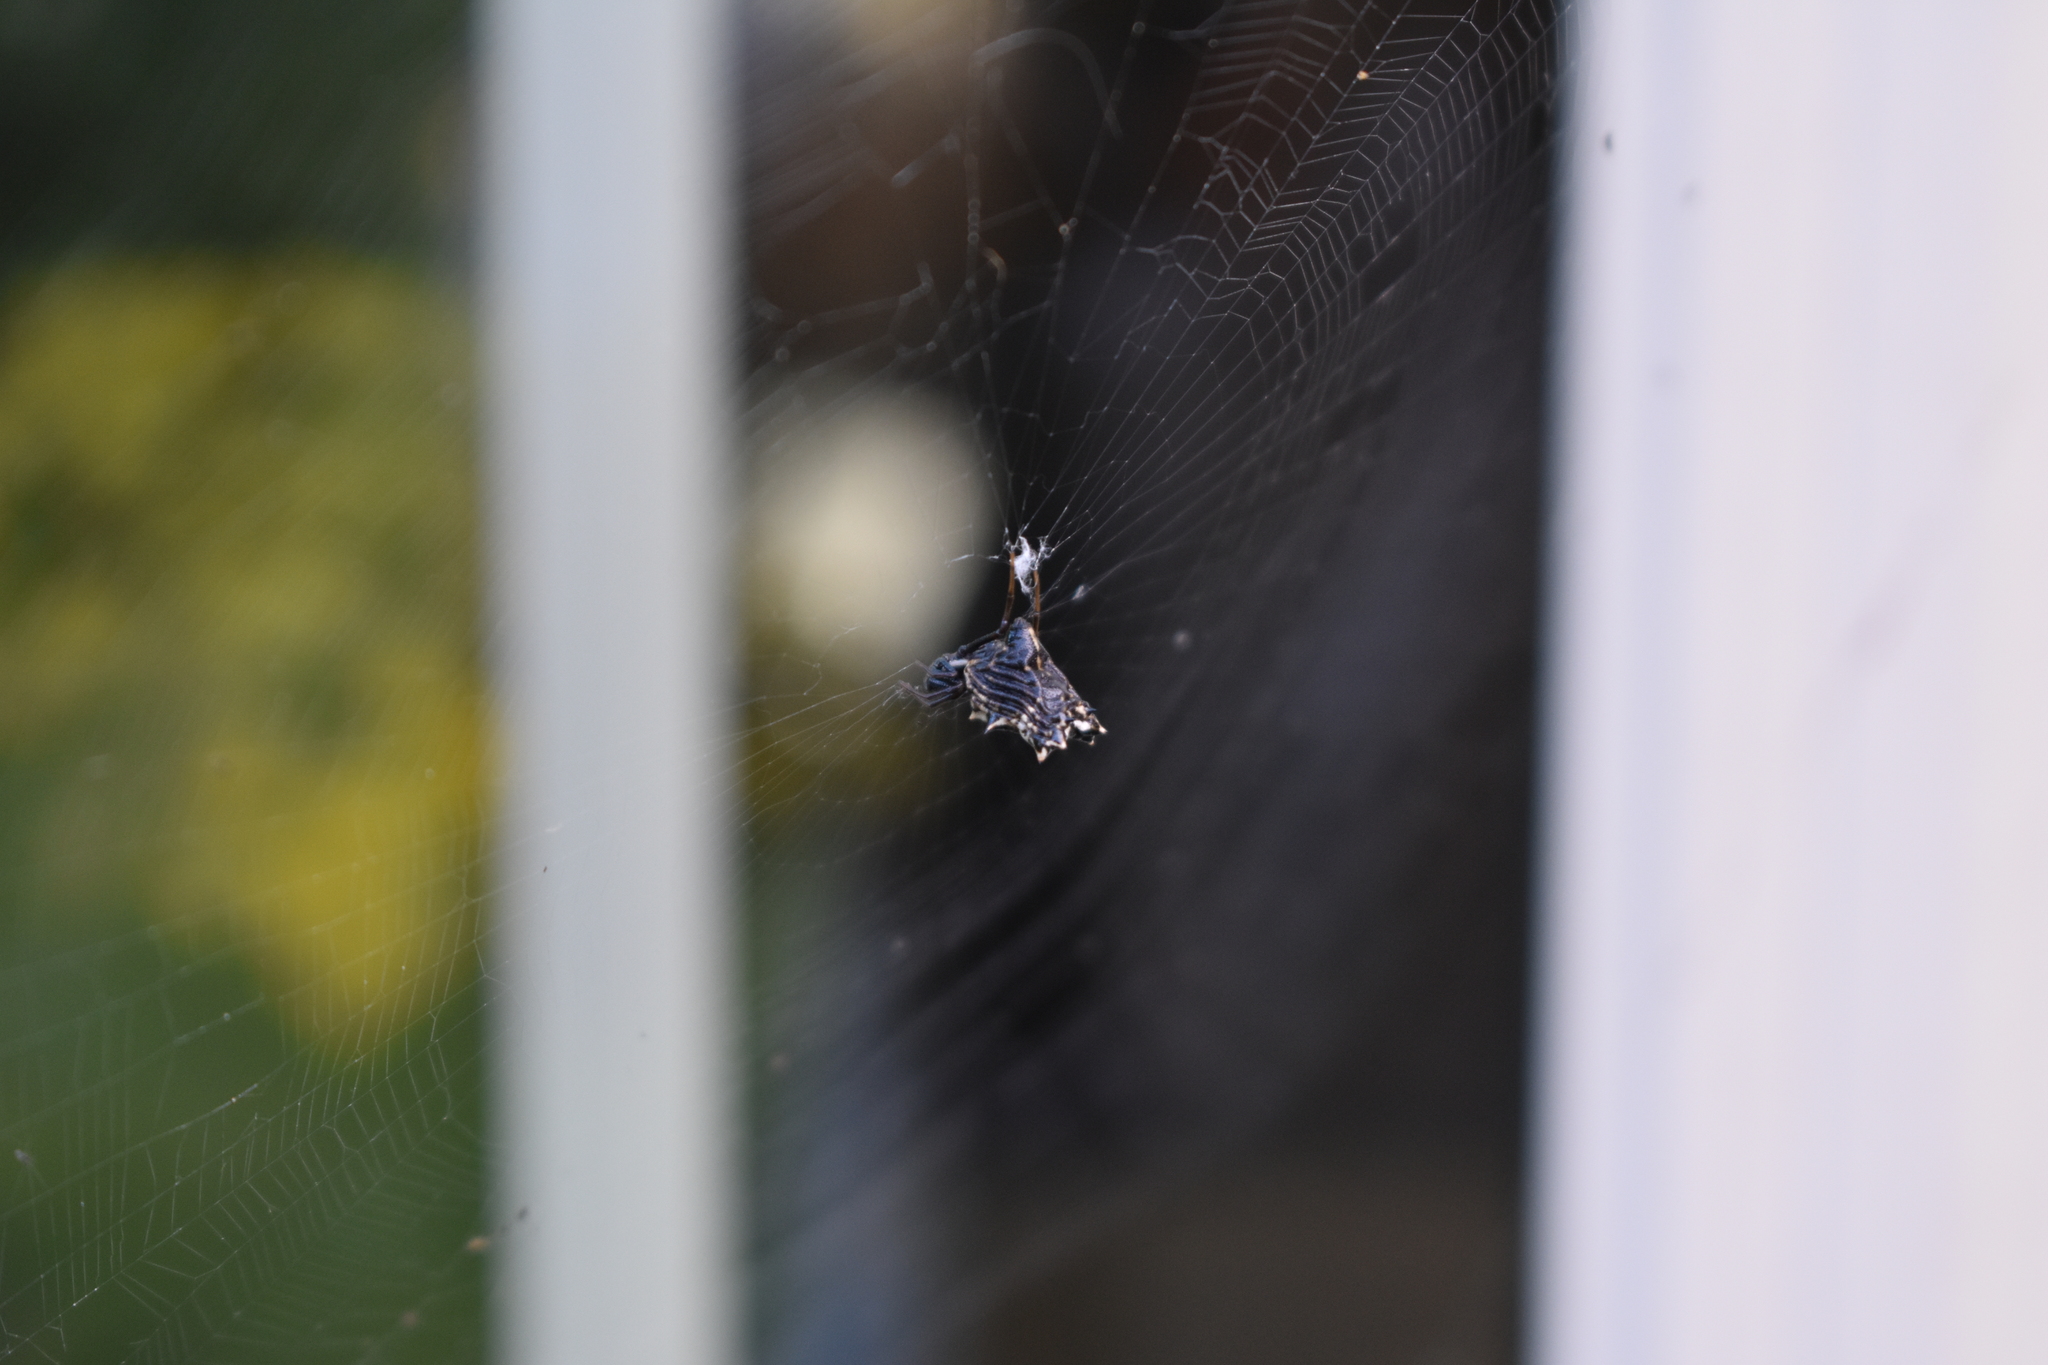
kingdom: Animalia
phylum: Arthropoda
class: Arachnida
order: Araneae
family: Araneidae
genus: Micrathena
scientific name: Micrathena gracilis
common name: Orb weavers
